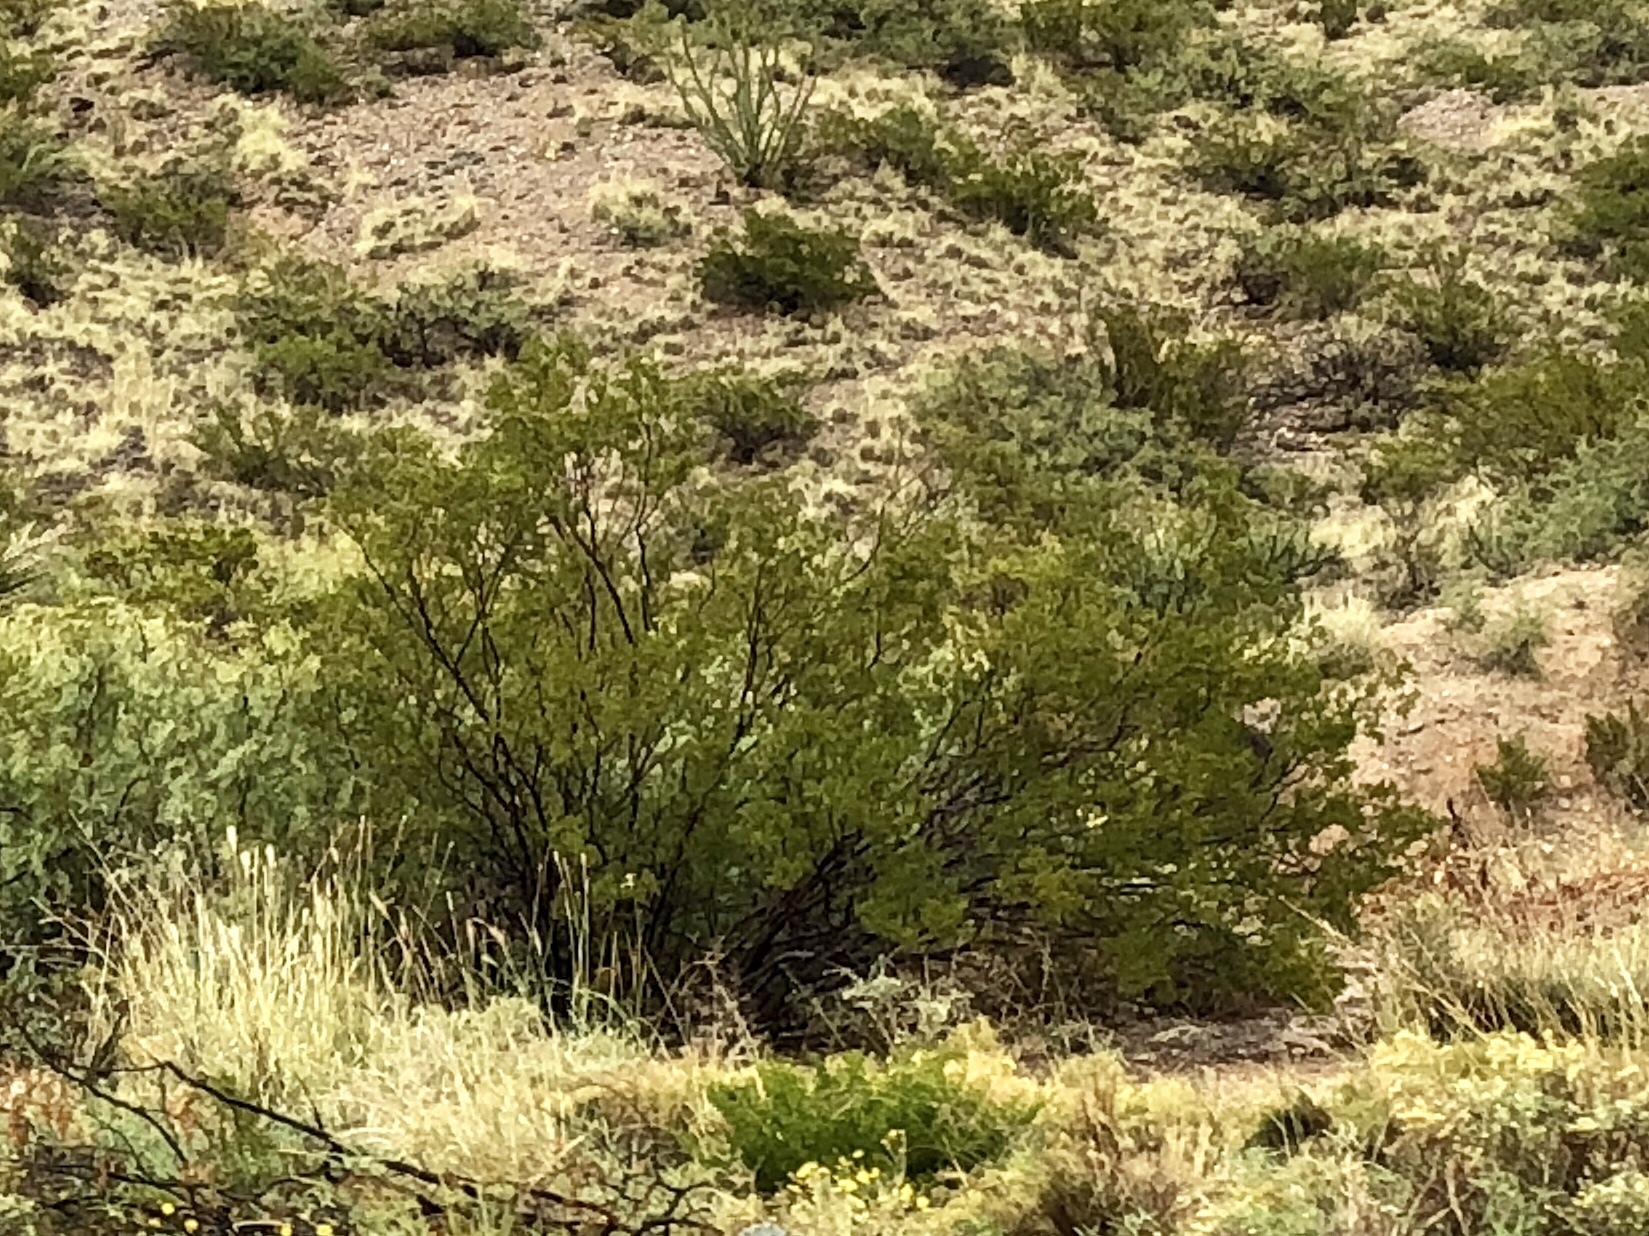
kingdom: Plantae
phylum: Tracheophyta
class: Magnoliopsida
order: Zygophyllales
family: Zygophyllaceae
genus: Larrea
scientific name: Larrea tridentata
